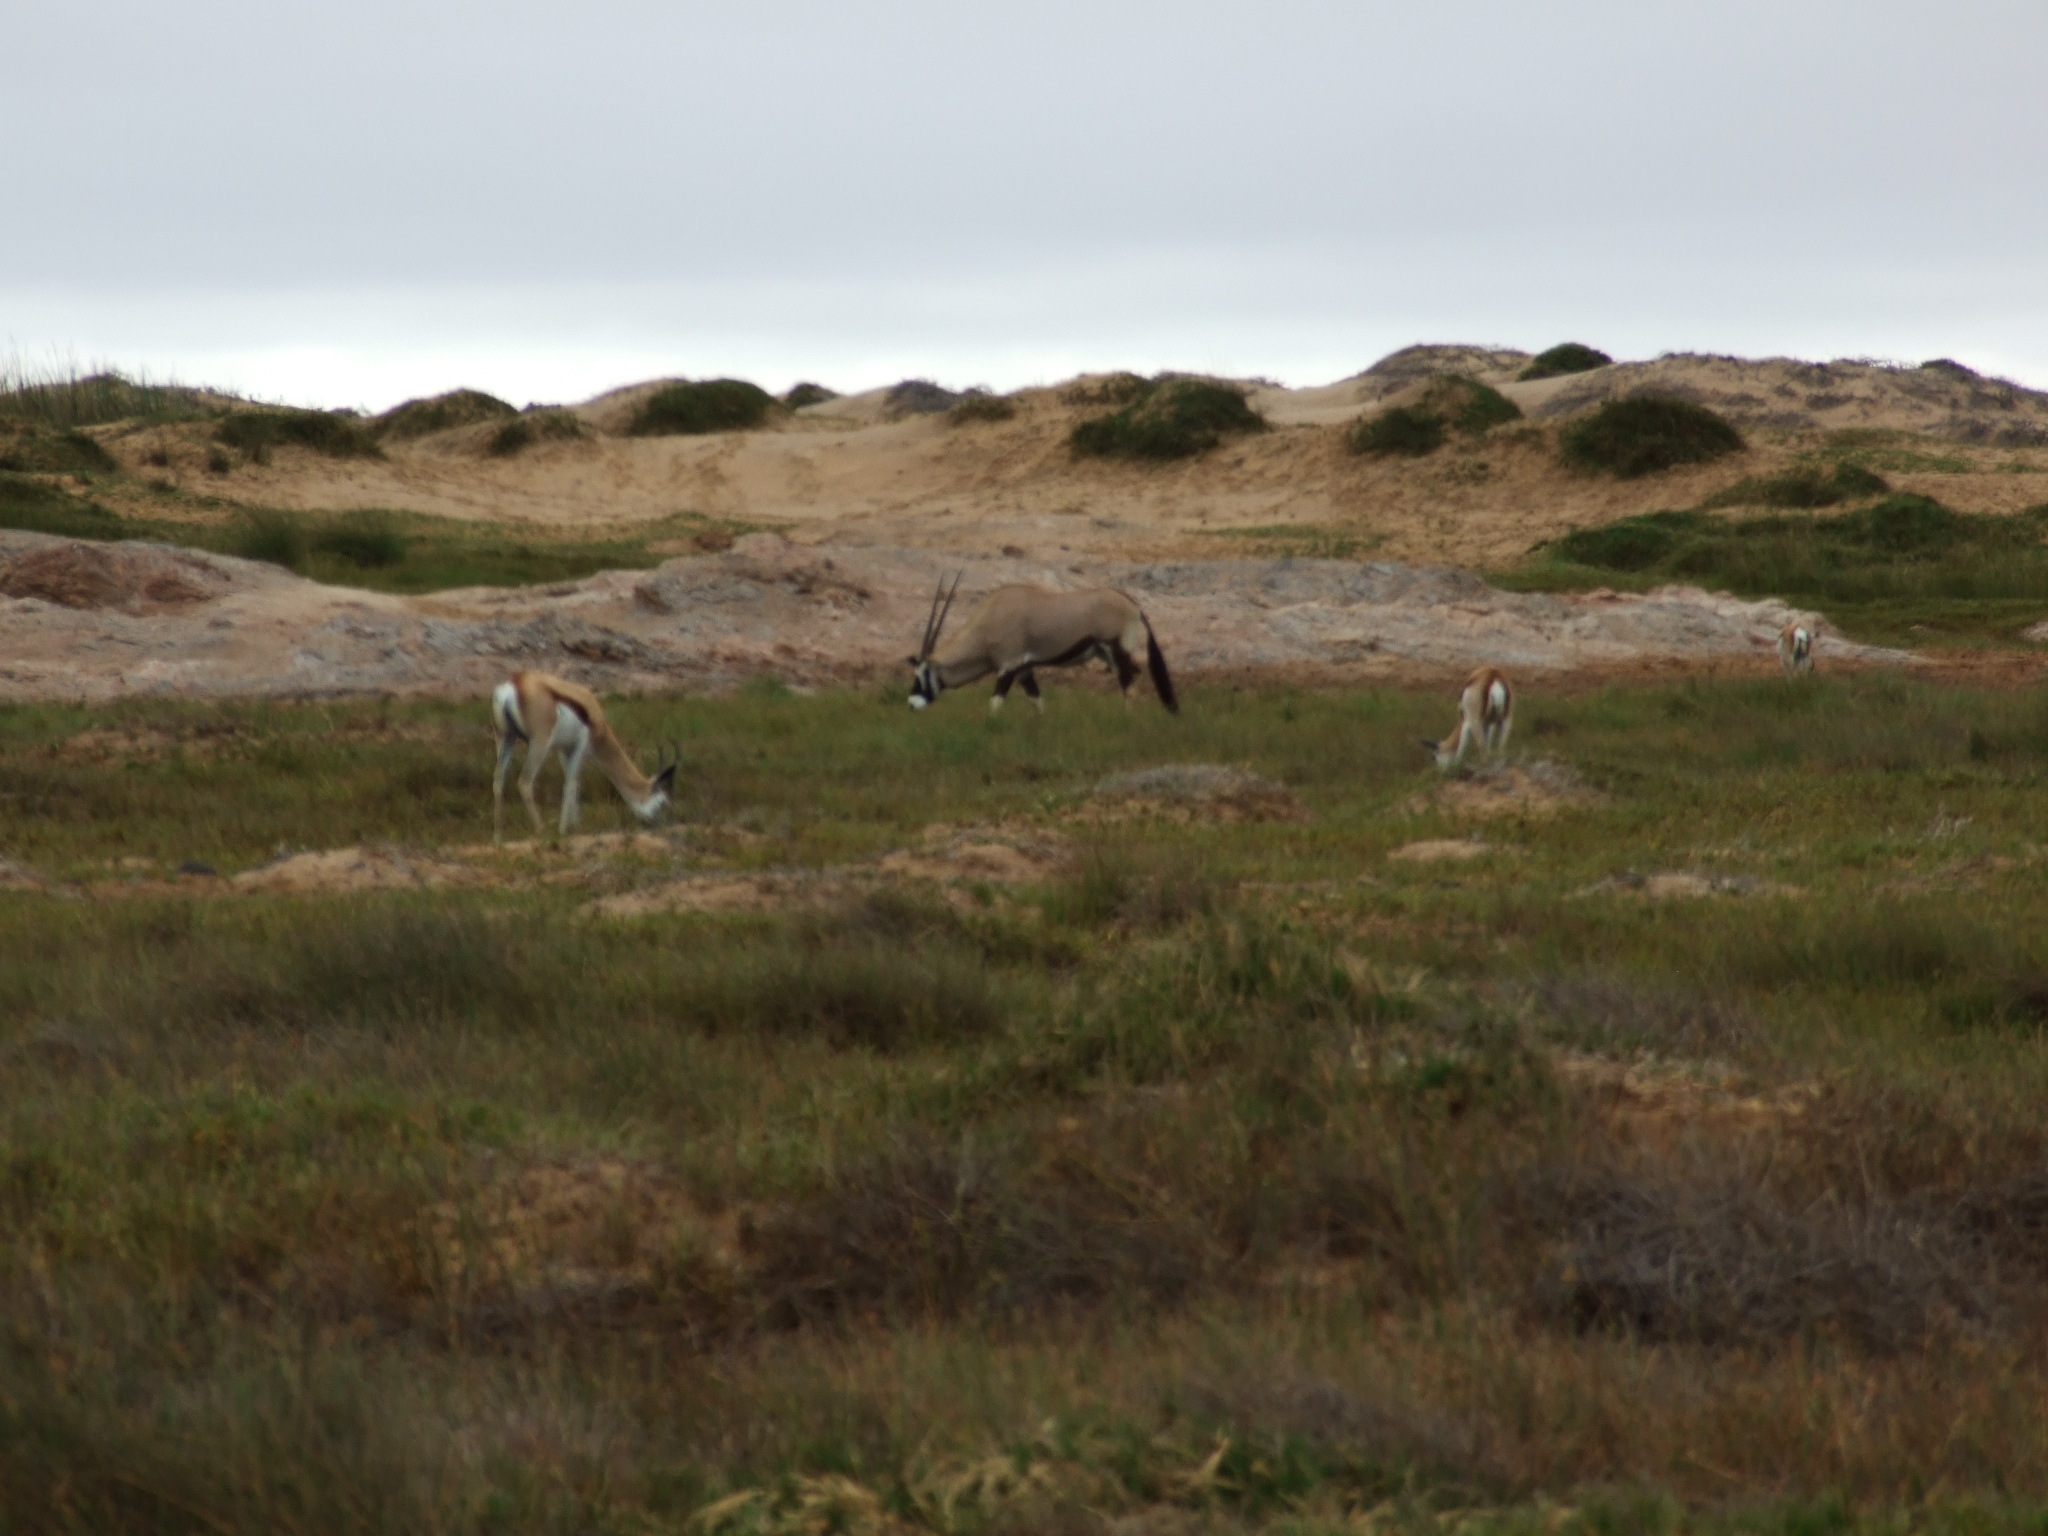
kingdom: Animalia
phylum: Chordata
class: Mammalia
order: Artiodactyla
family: Bovidae
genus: Oryx
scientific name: Oryx gazella
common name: Gemsbok
